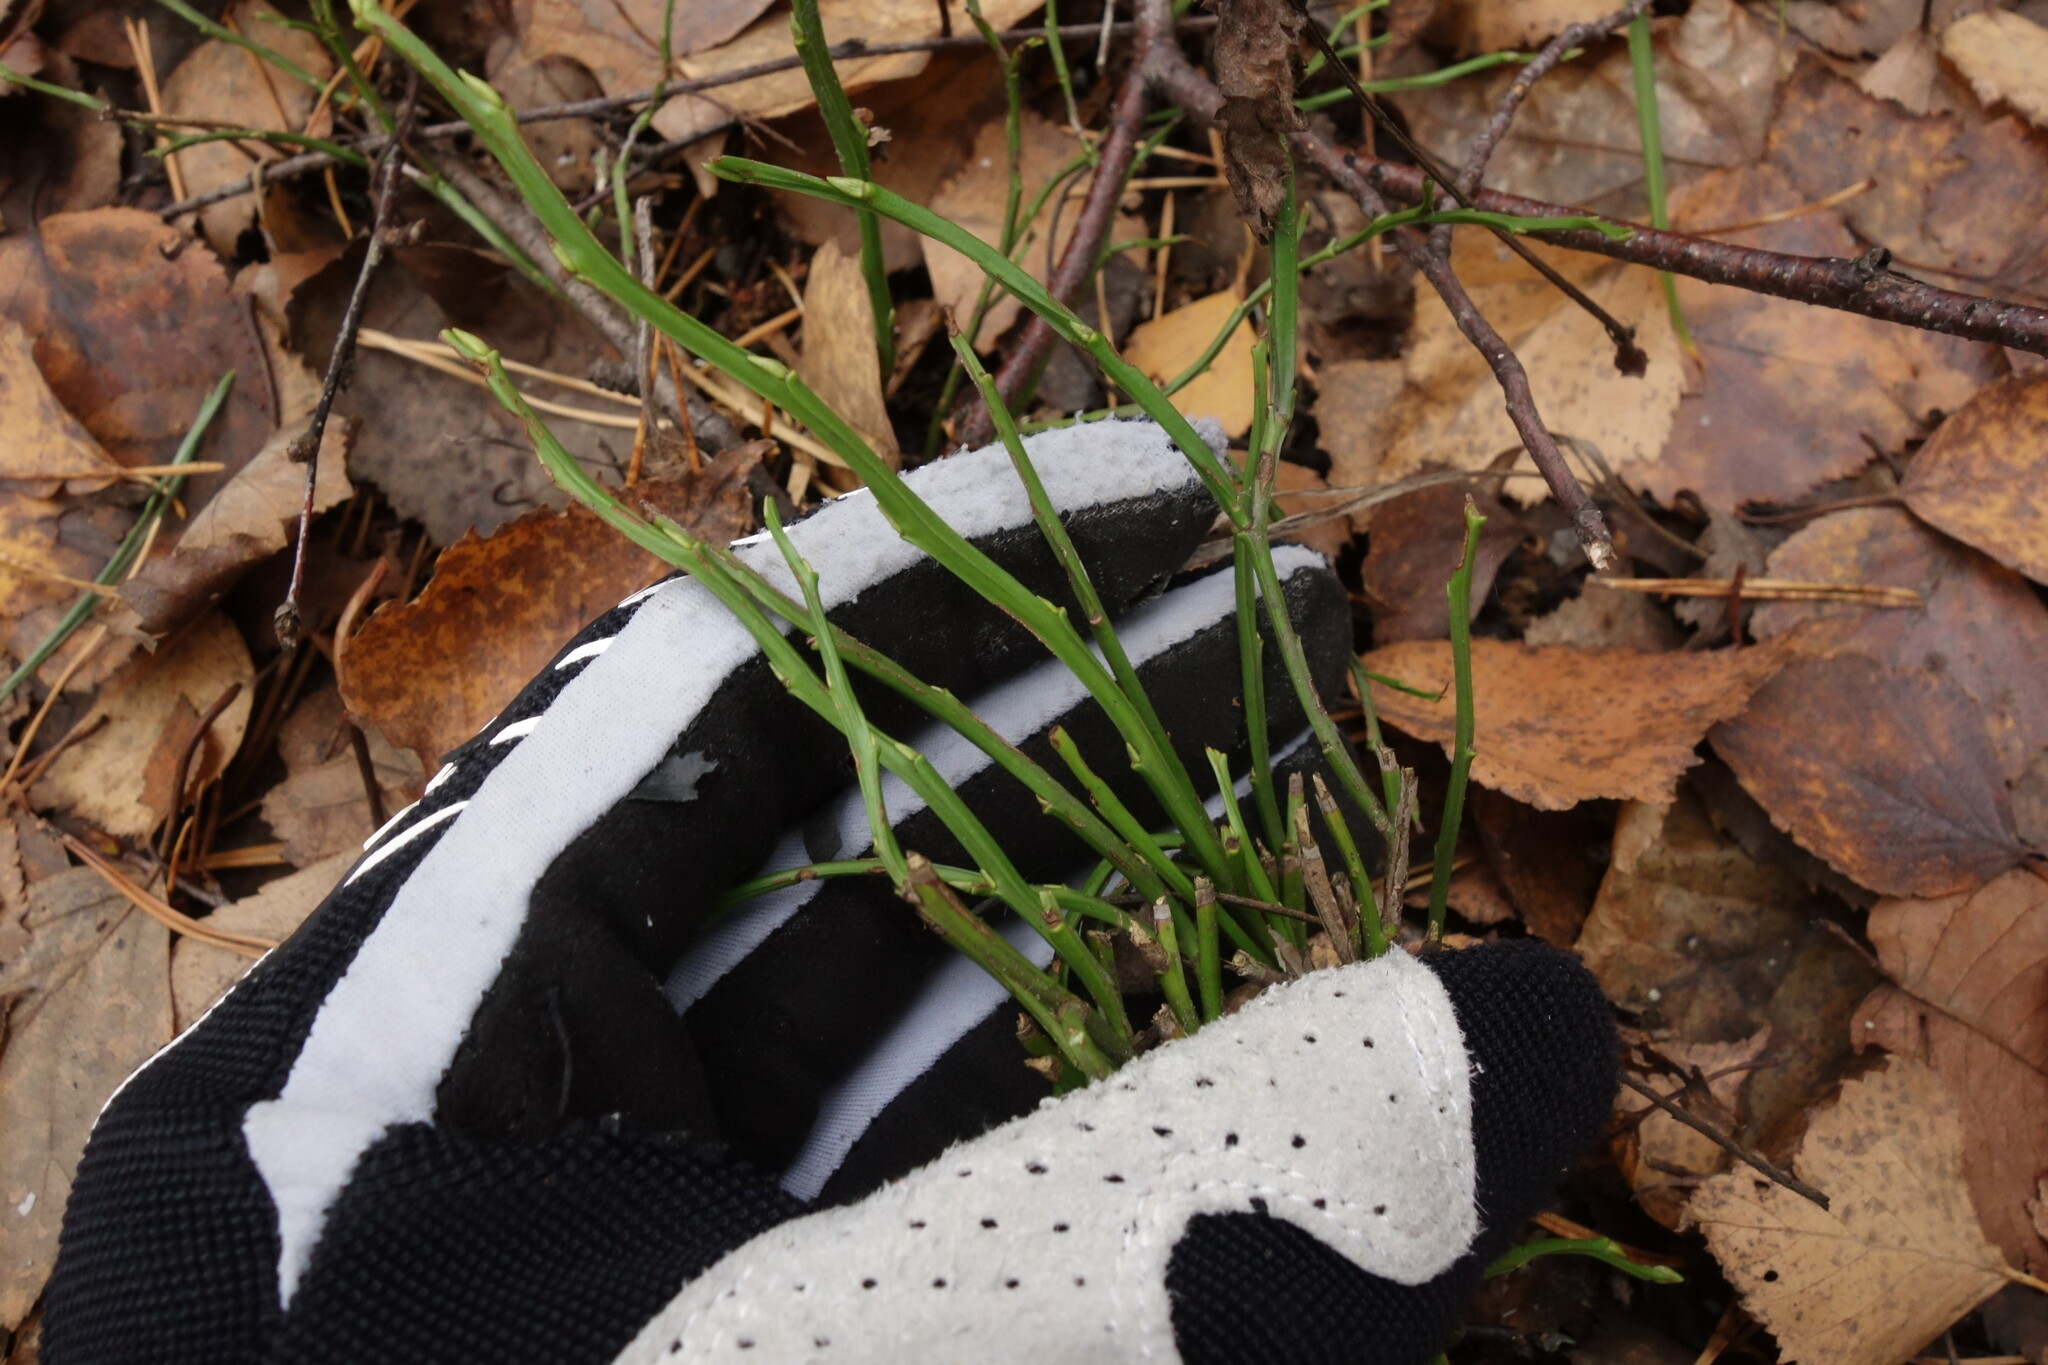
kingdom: Plantae
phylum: Tracheophyta
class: Magnoliopsida
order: Ericales
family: Ericaceae
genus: Vaccinium
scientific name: Vaccinium myrtillus
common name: Bilberry
